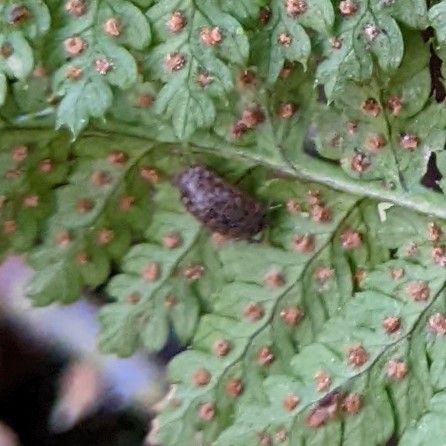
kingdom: Plantae
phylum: Tracheophyta
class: Polypodiopsida
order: Polypodiales
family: Dryopteridaceae
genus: Dryopteris
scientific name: Dryopteris intermedia
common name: Evergreen wood fern
